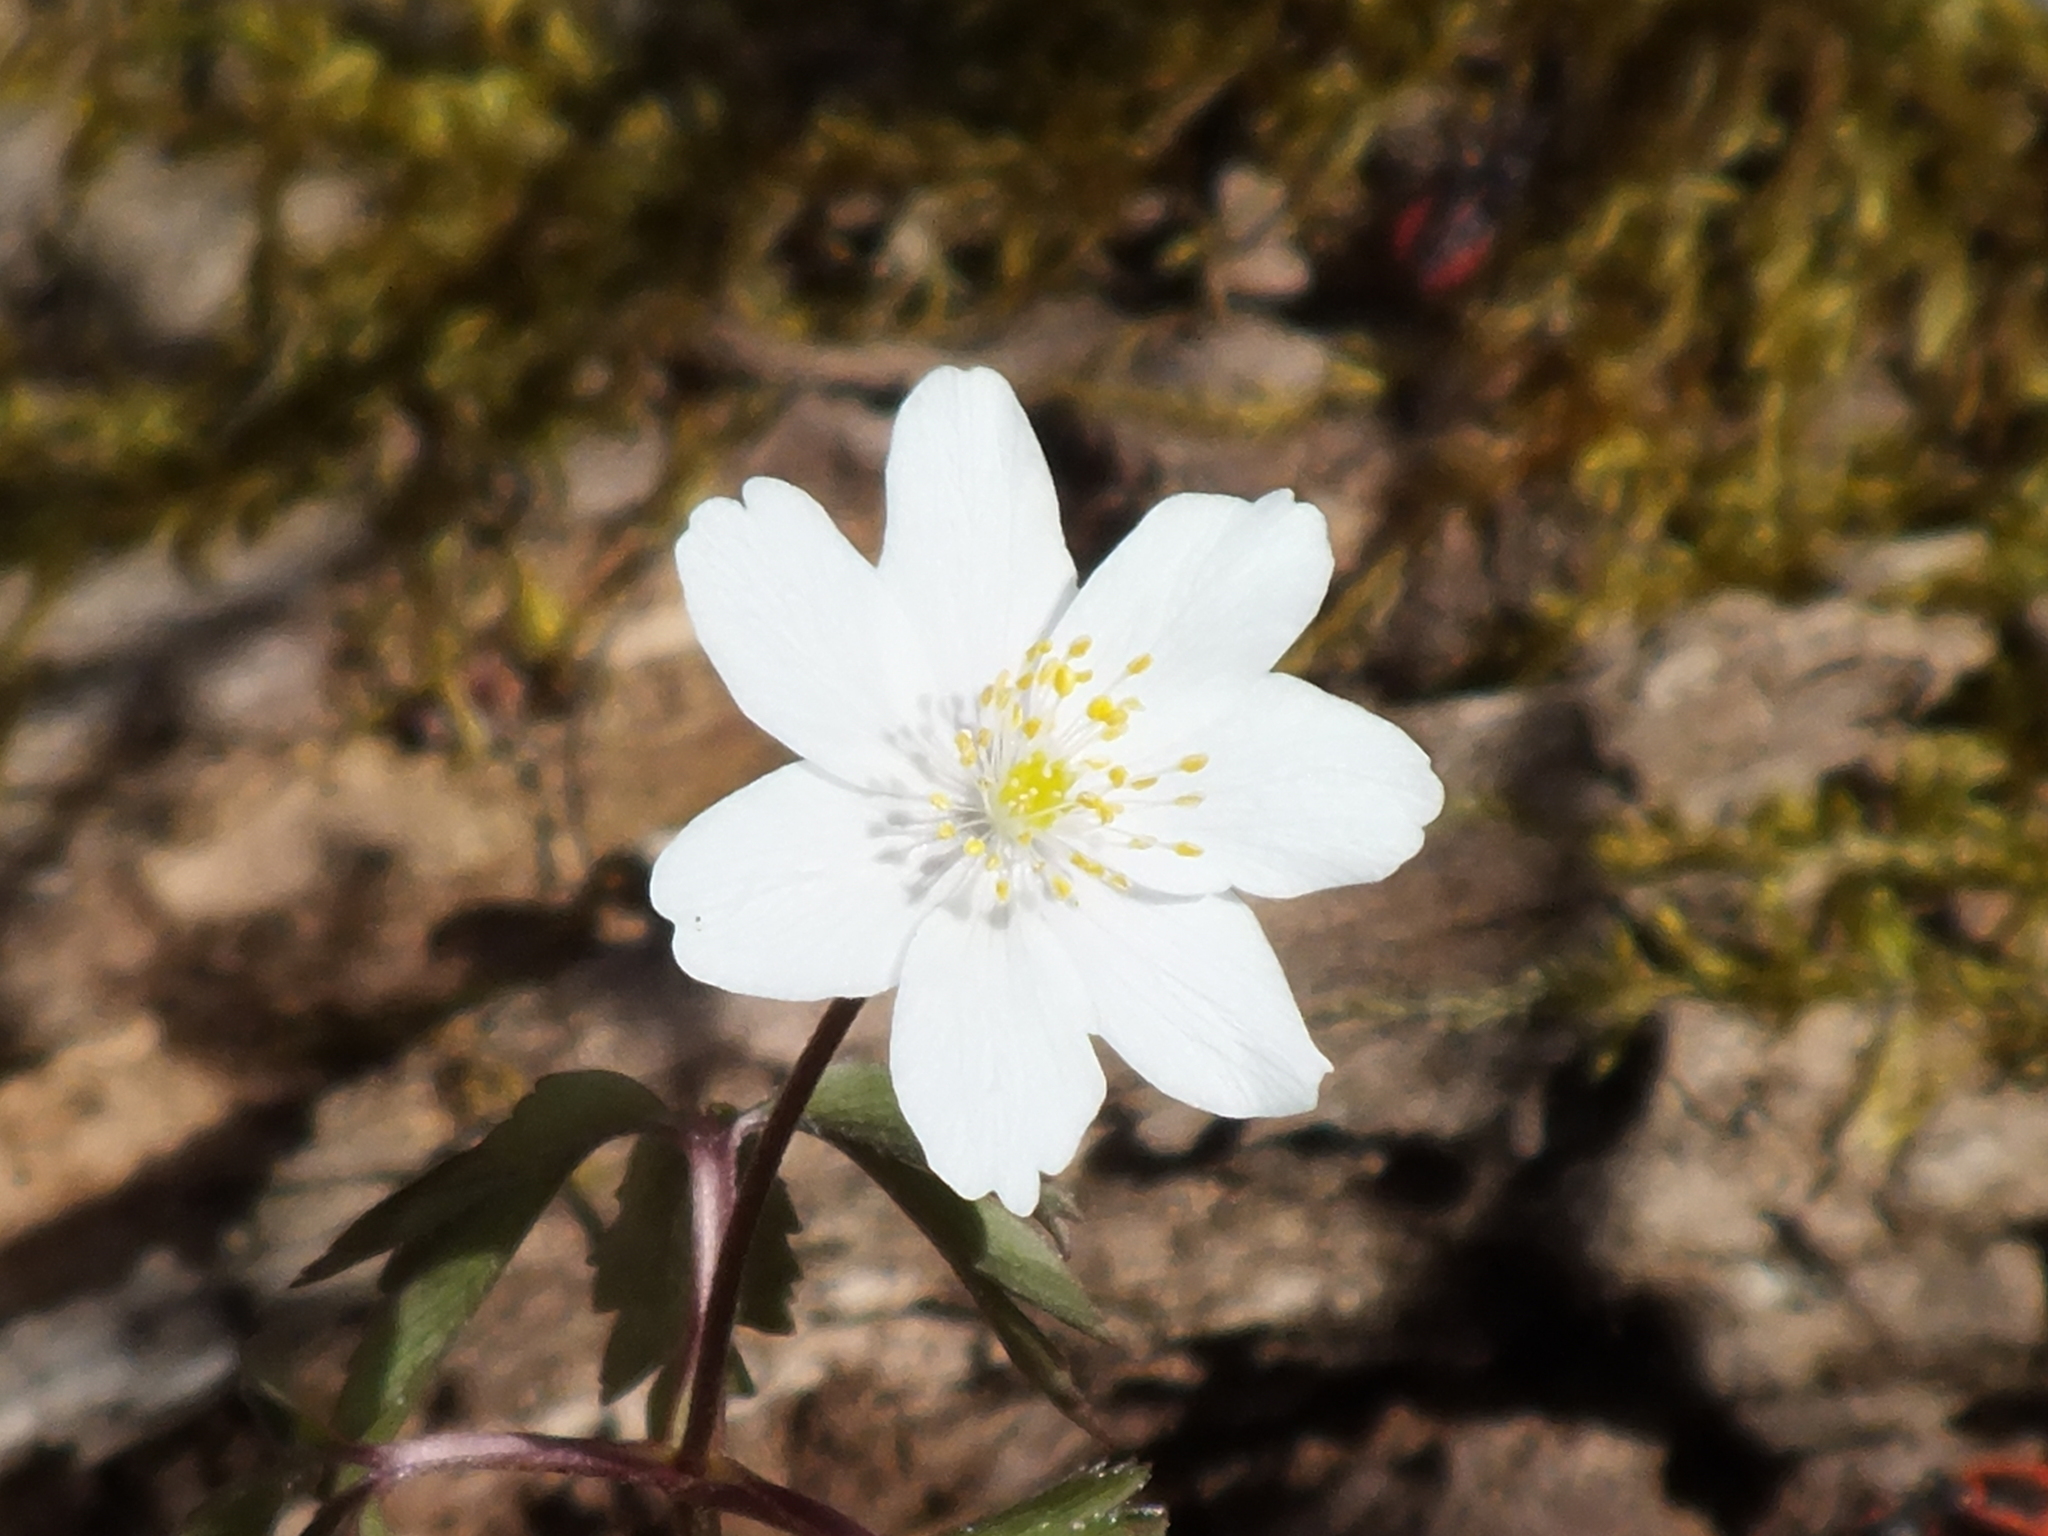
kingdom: Plantae
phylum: Tracheophyta
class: Magnoliopsida
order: Ranunculales
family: Ranunculaceae
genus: Anemone
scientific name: Anemone nemorosa
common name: Wood anemone
